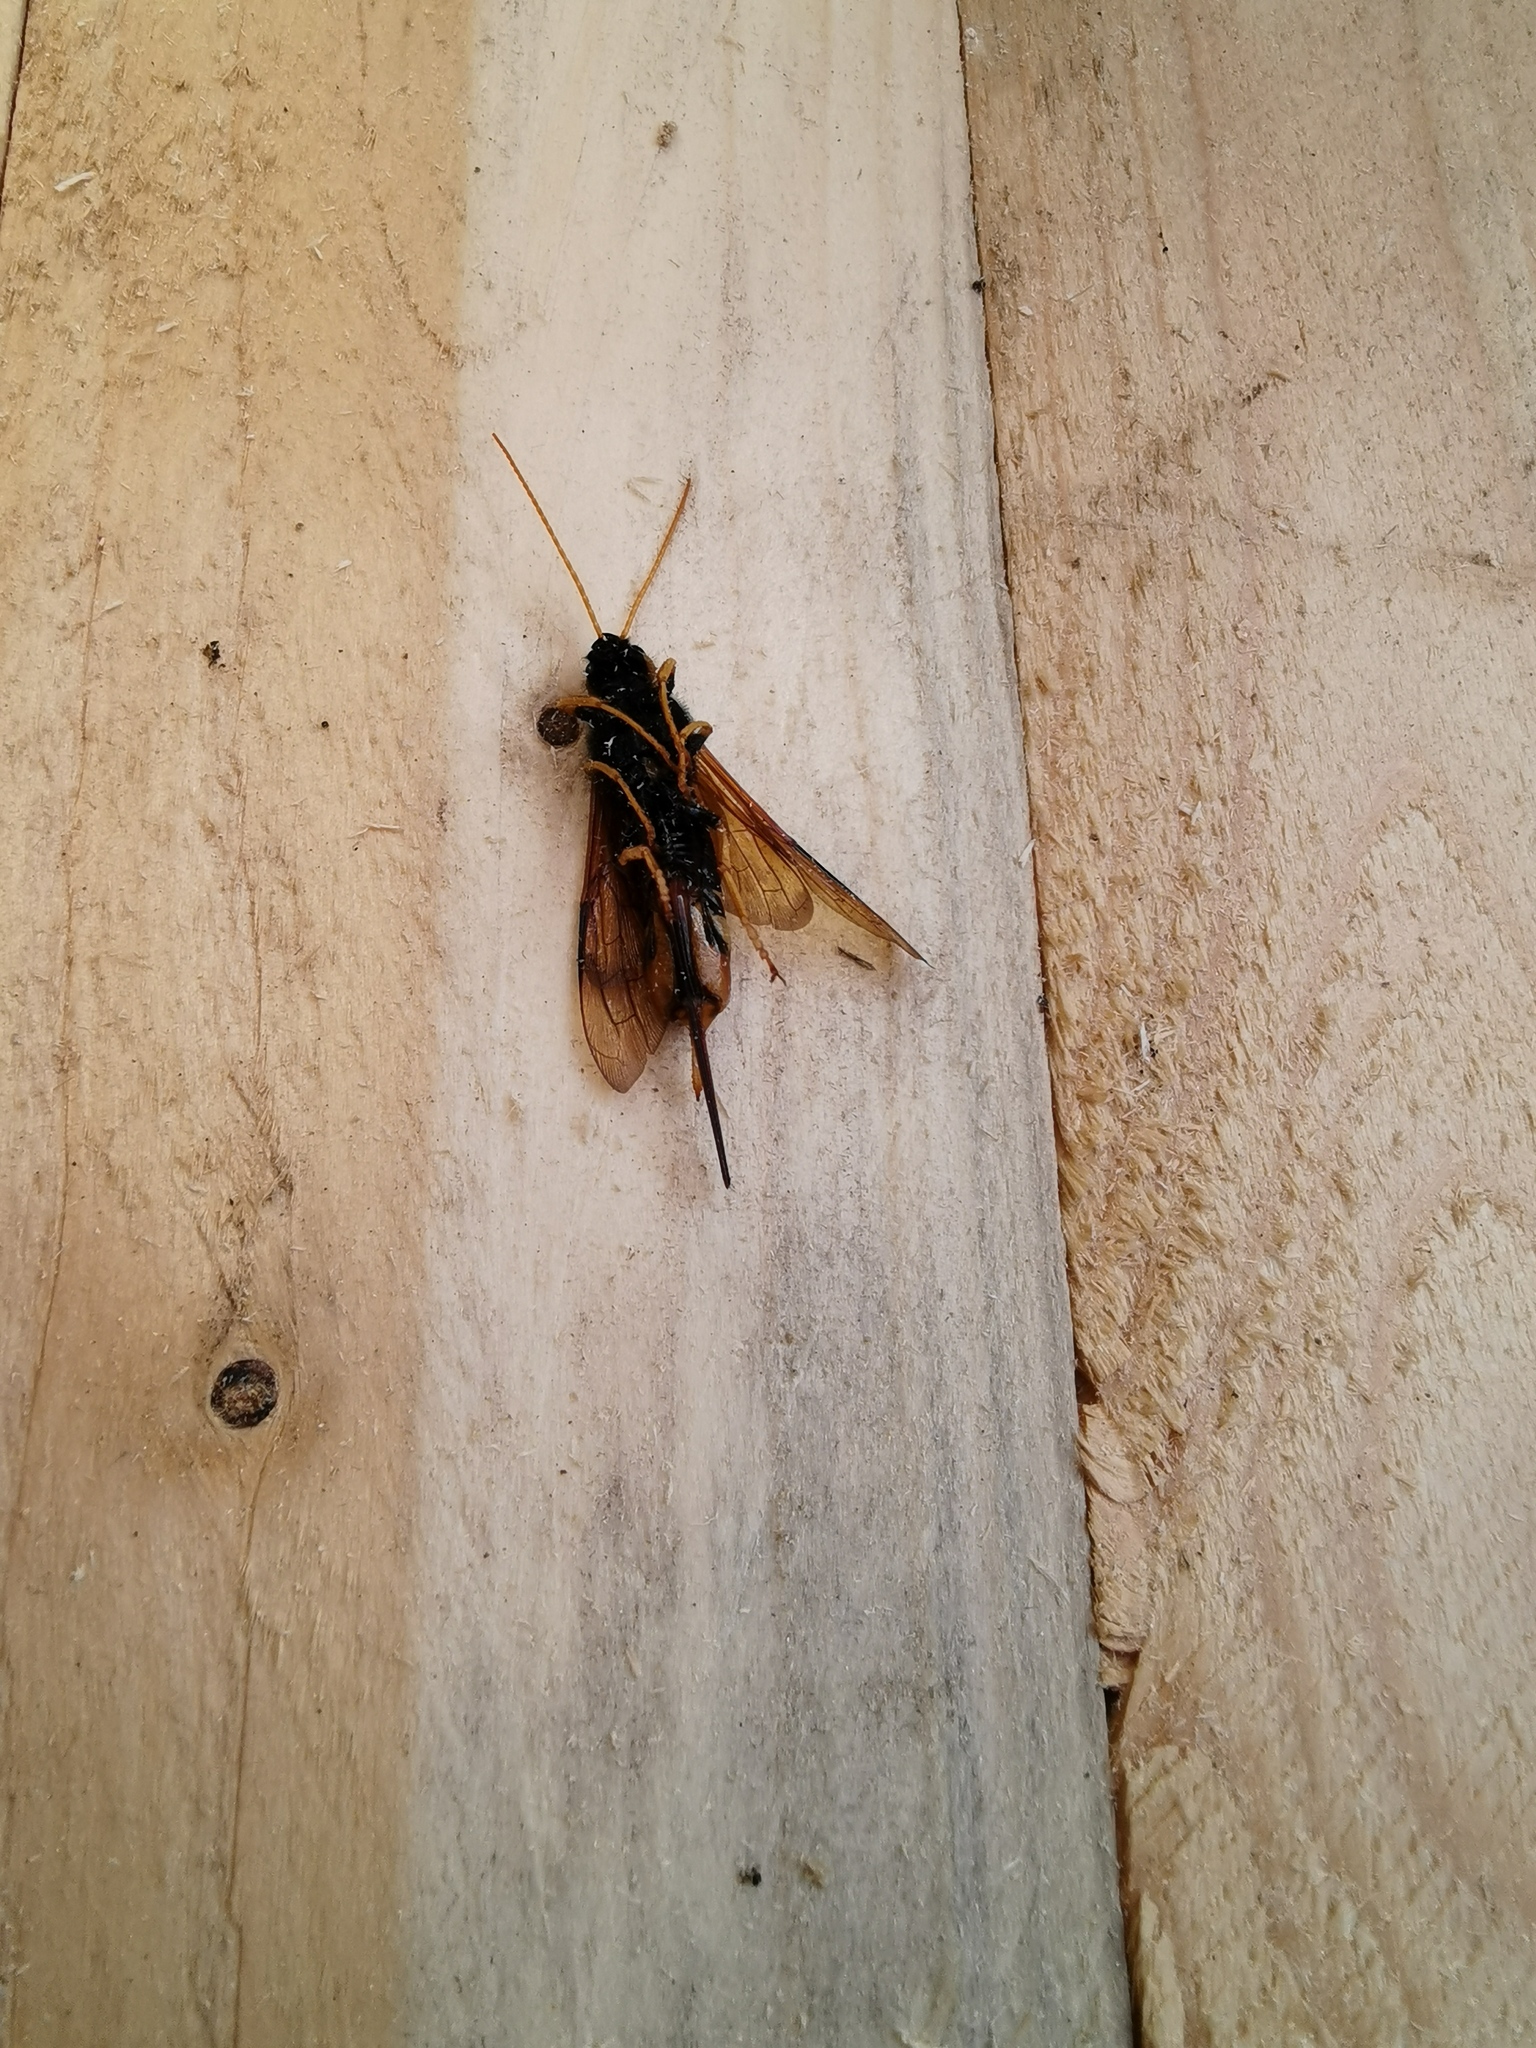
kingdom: Animalia
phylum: Arthropoda
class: Insecta
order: Hymenoptera
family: Siricidae
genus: Urocerus
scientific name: Urocerus
